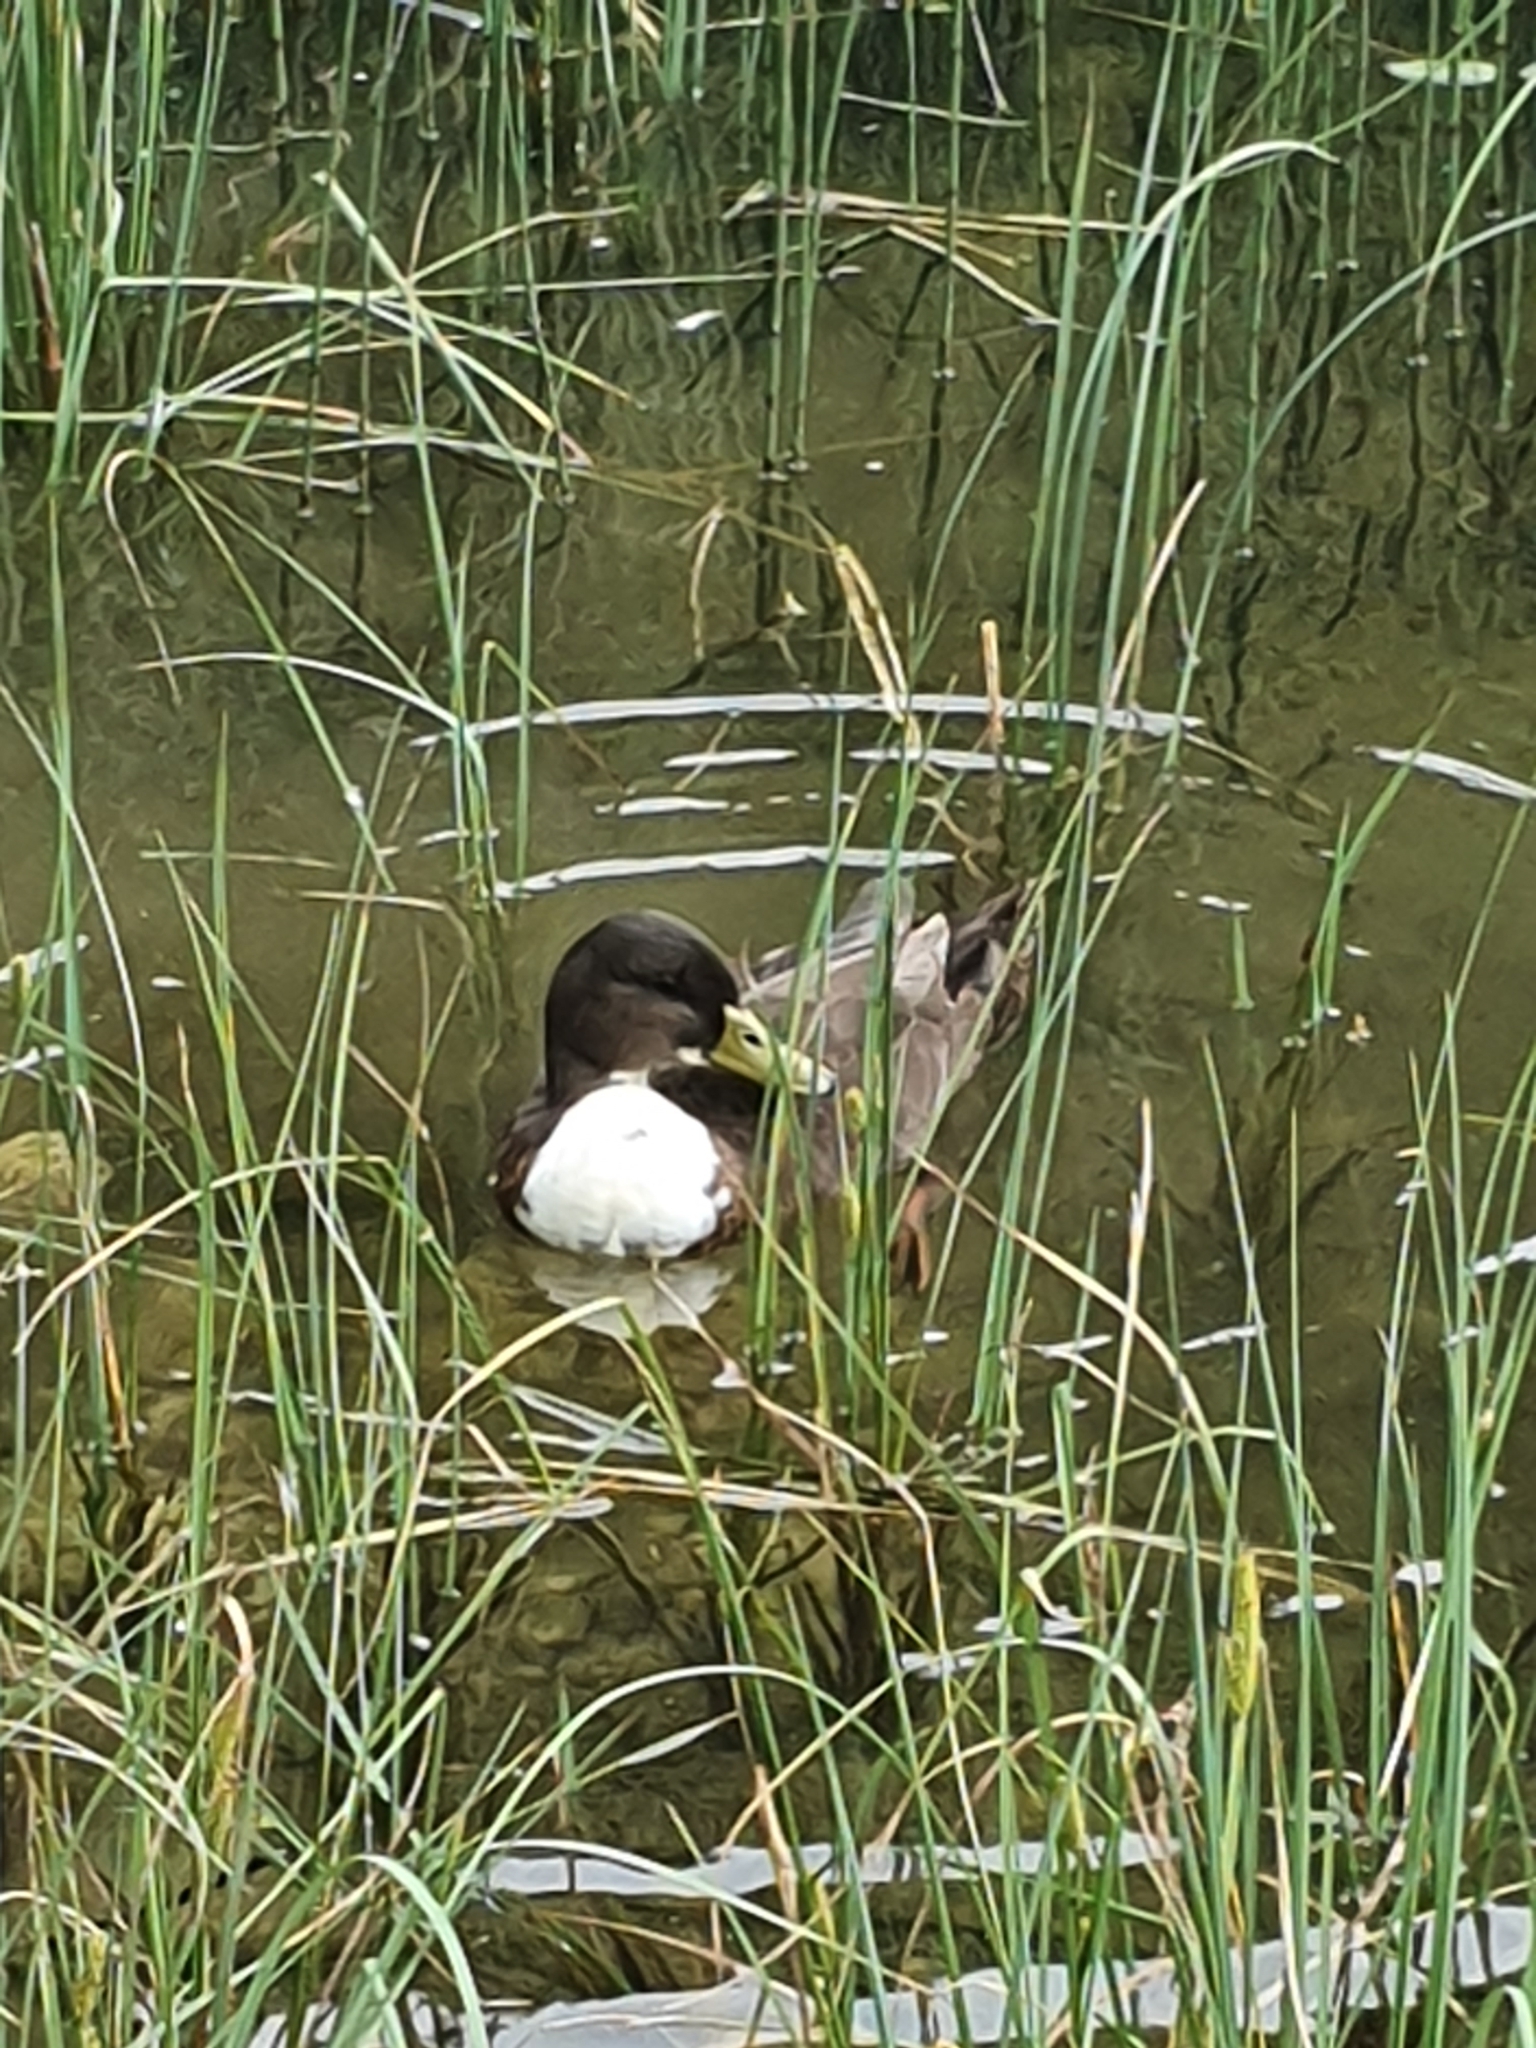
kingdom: Animalia
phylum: Chordata
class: Aves
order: Anseriformes
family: Anatidae
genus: Anas
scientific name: Anas platyrhynchos
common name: Mallard
